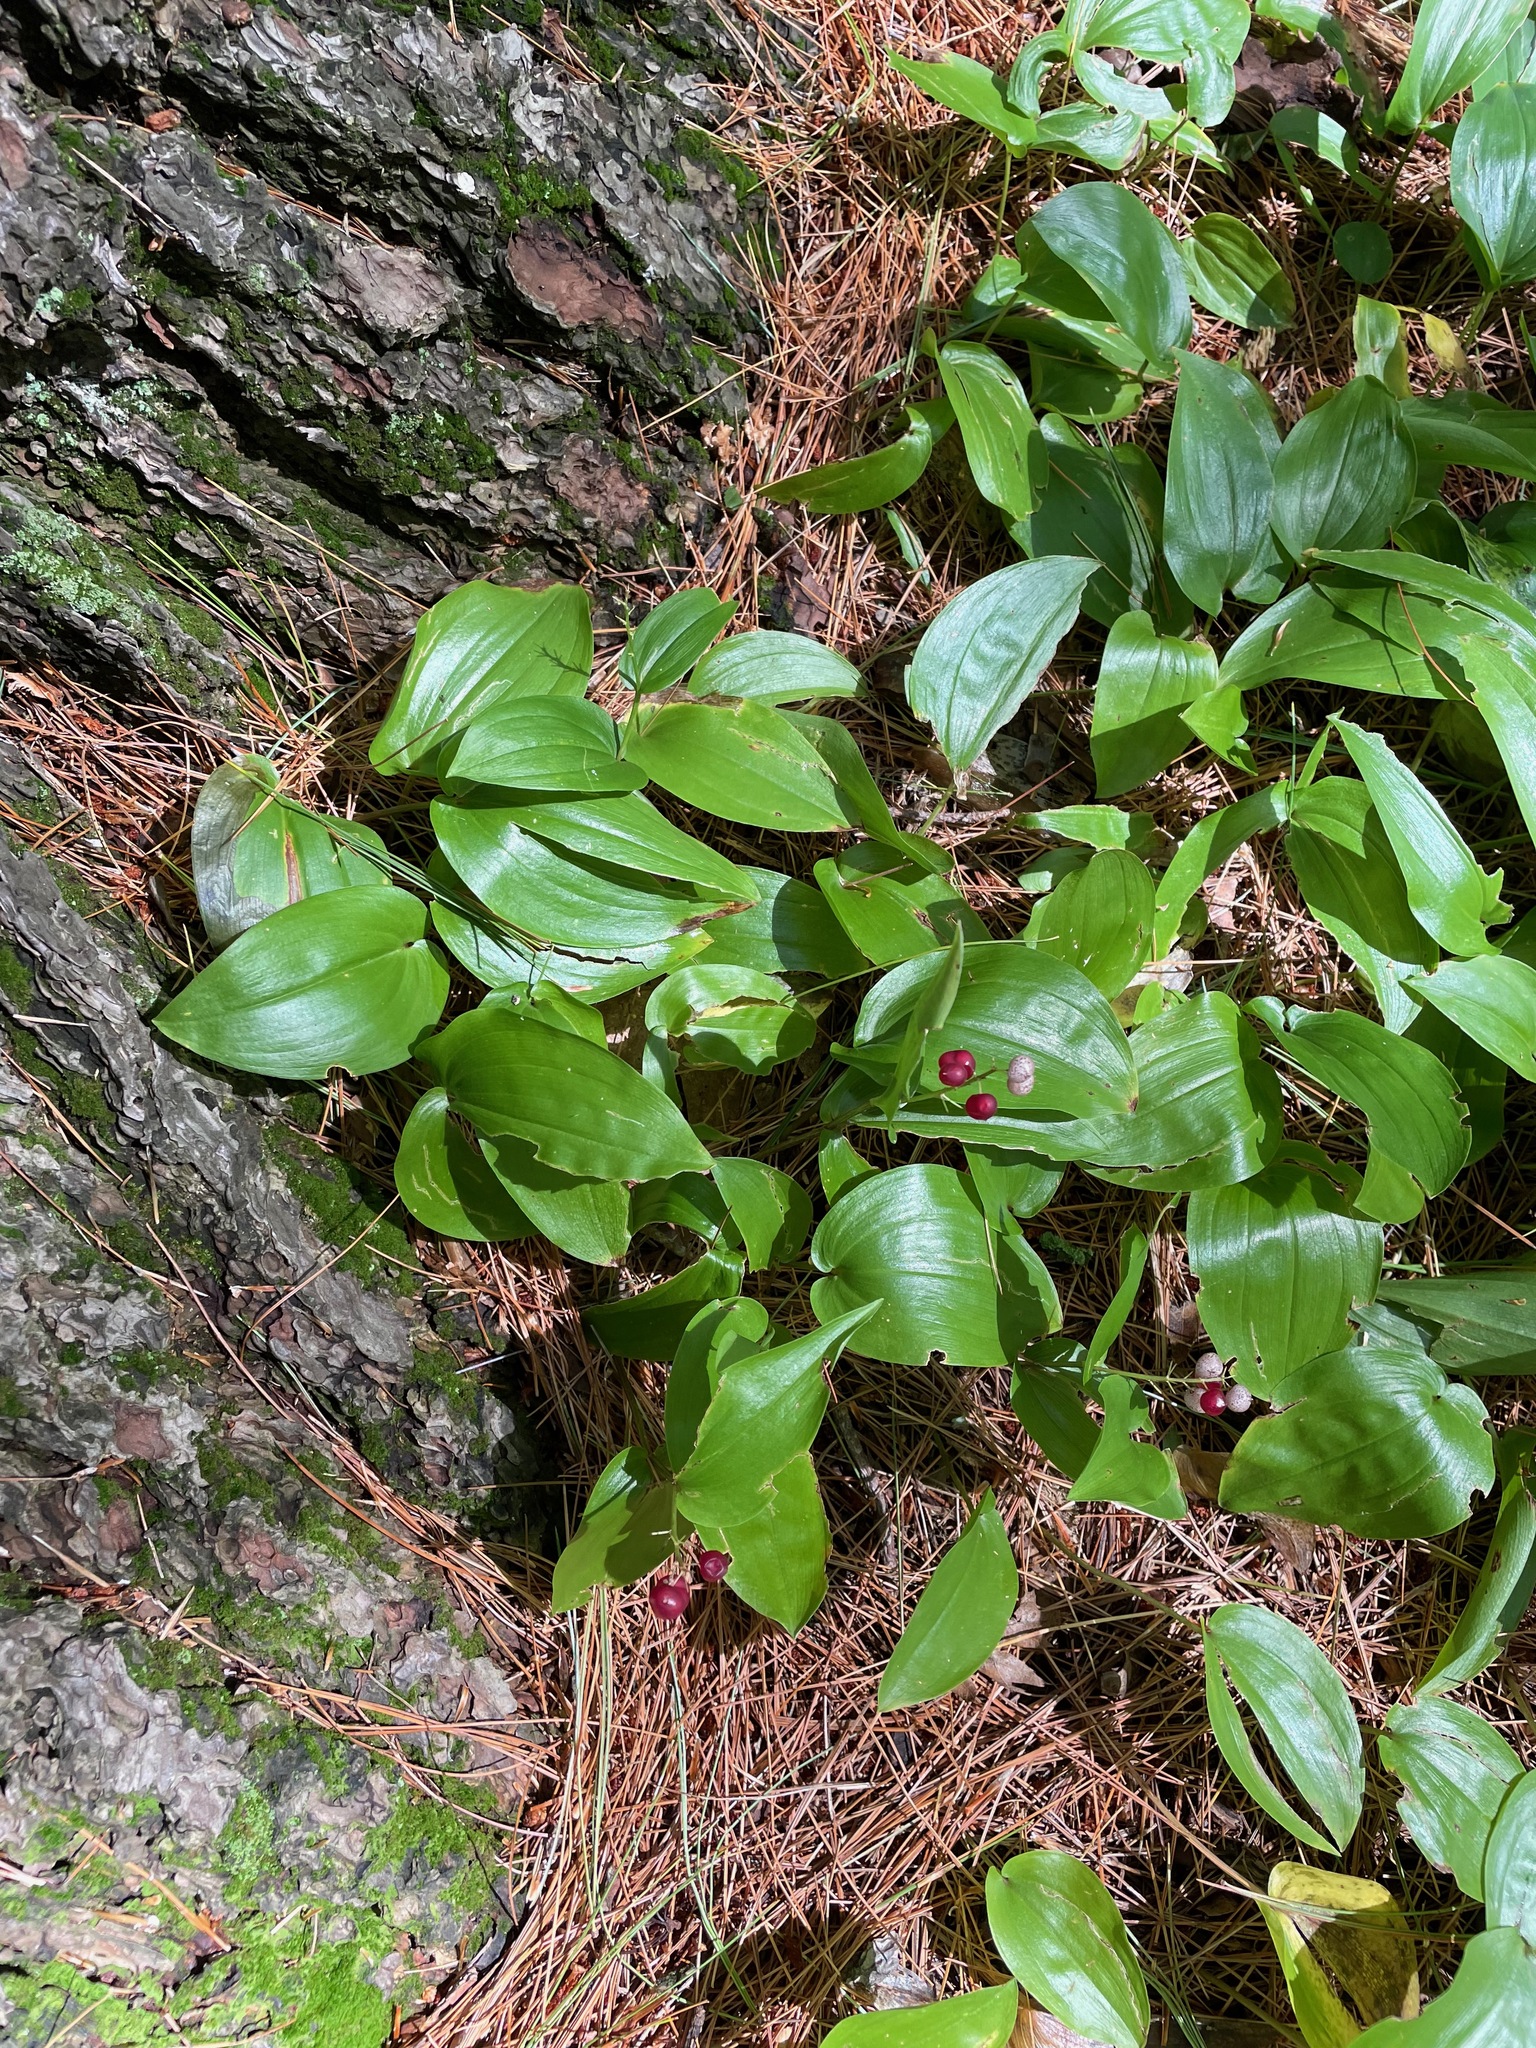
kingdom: Plantae
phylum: Tracheophyta
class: Liliopsida
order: Asparagales
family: Asparagaceae
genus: Maianthemum
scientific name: Maianthemum canadense
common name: False lily-of-the-valley
